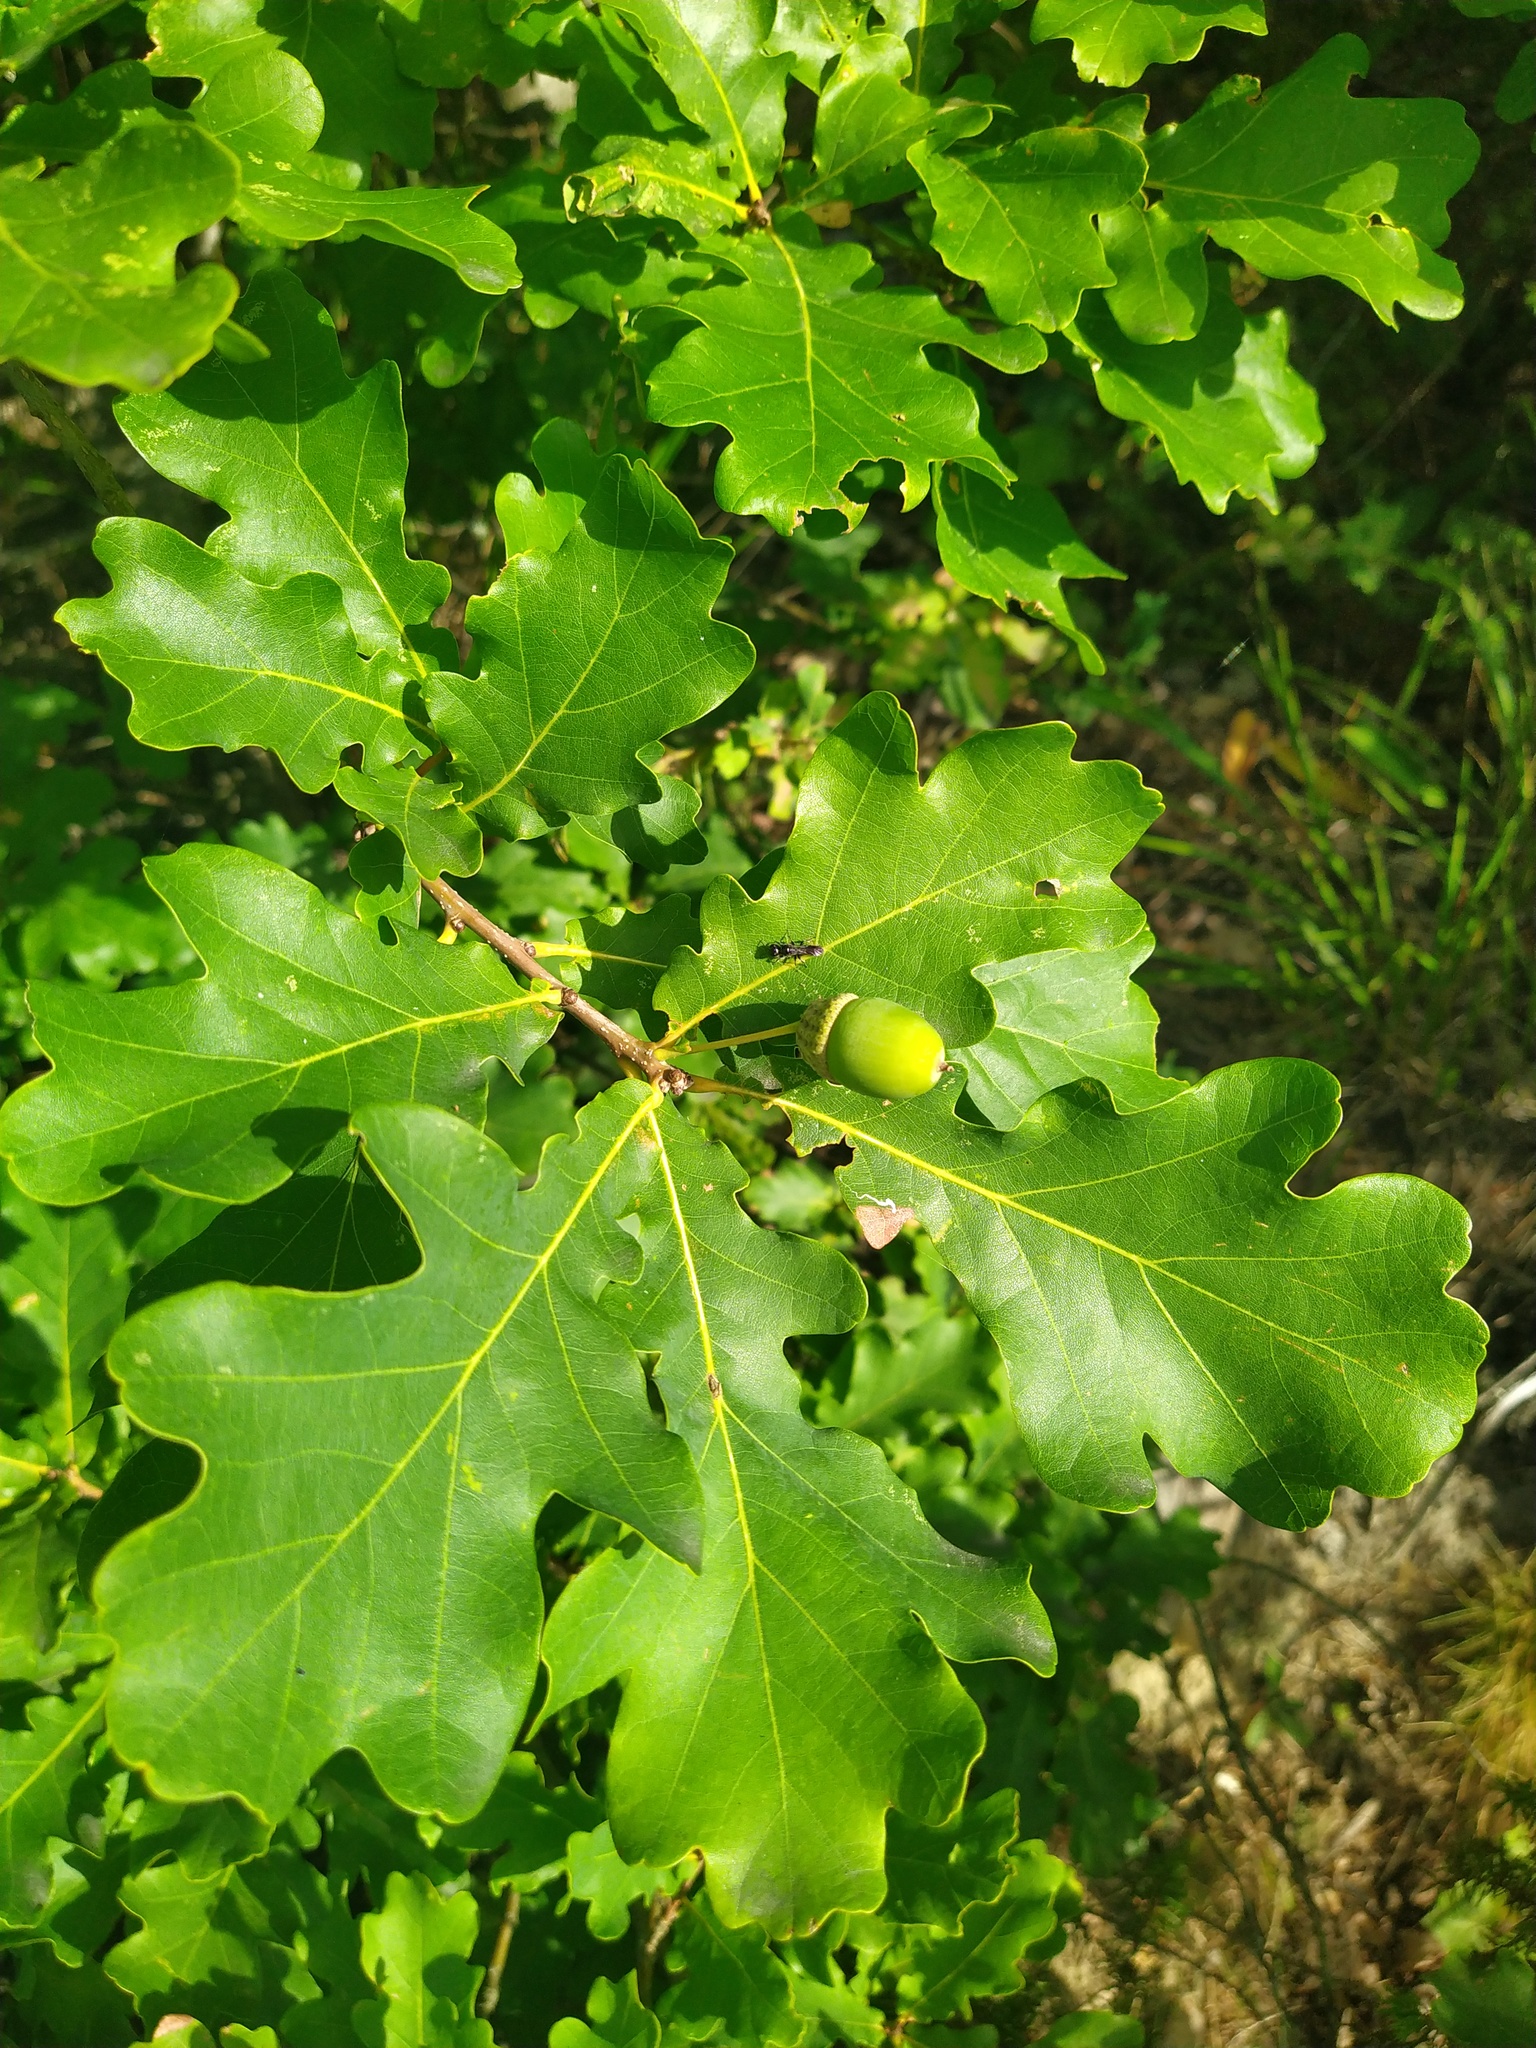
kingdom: Plantae
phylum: Tracheophyta
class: Magnoliopsida
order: Fagales
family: Fagaceae
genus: Quercus
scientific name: Quercus robur
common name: Pedunculate oak
